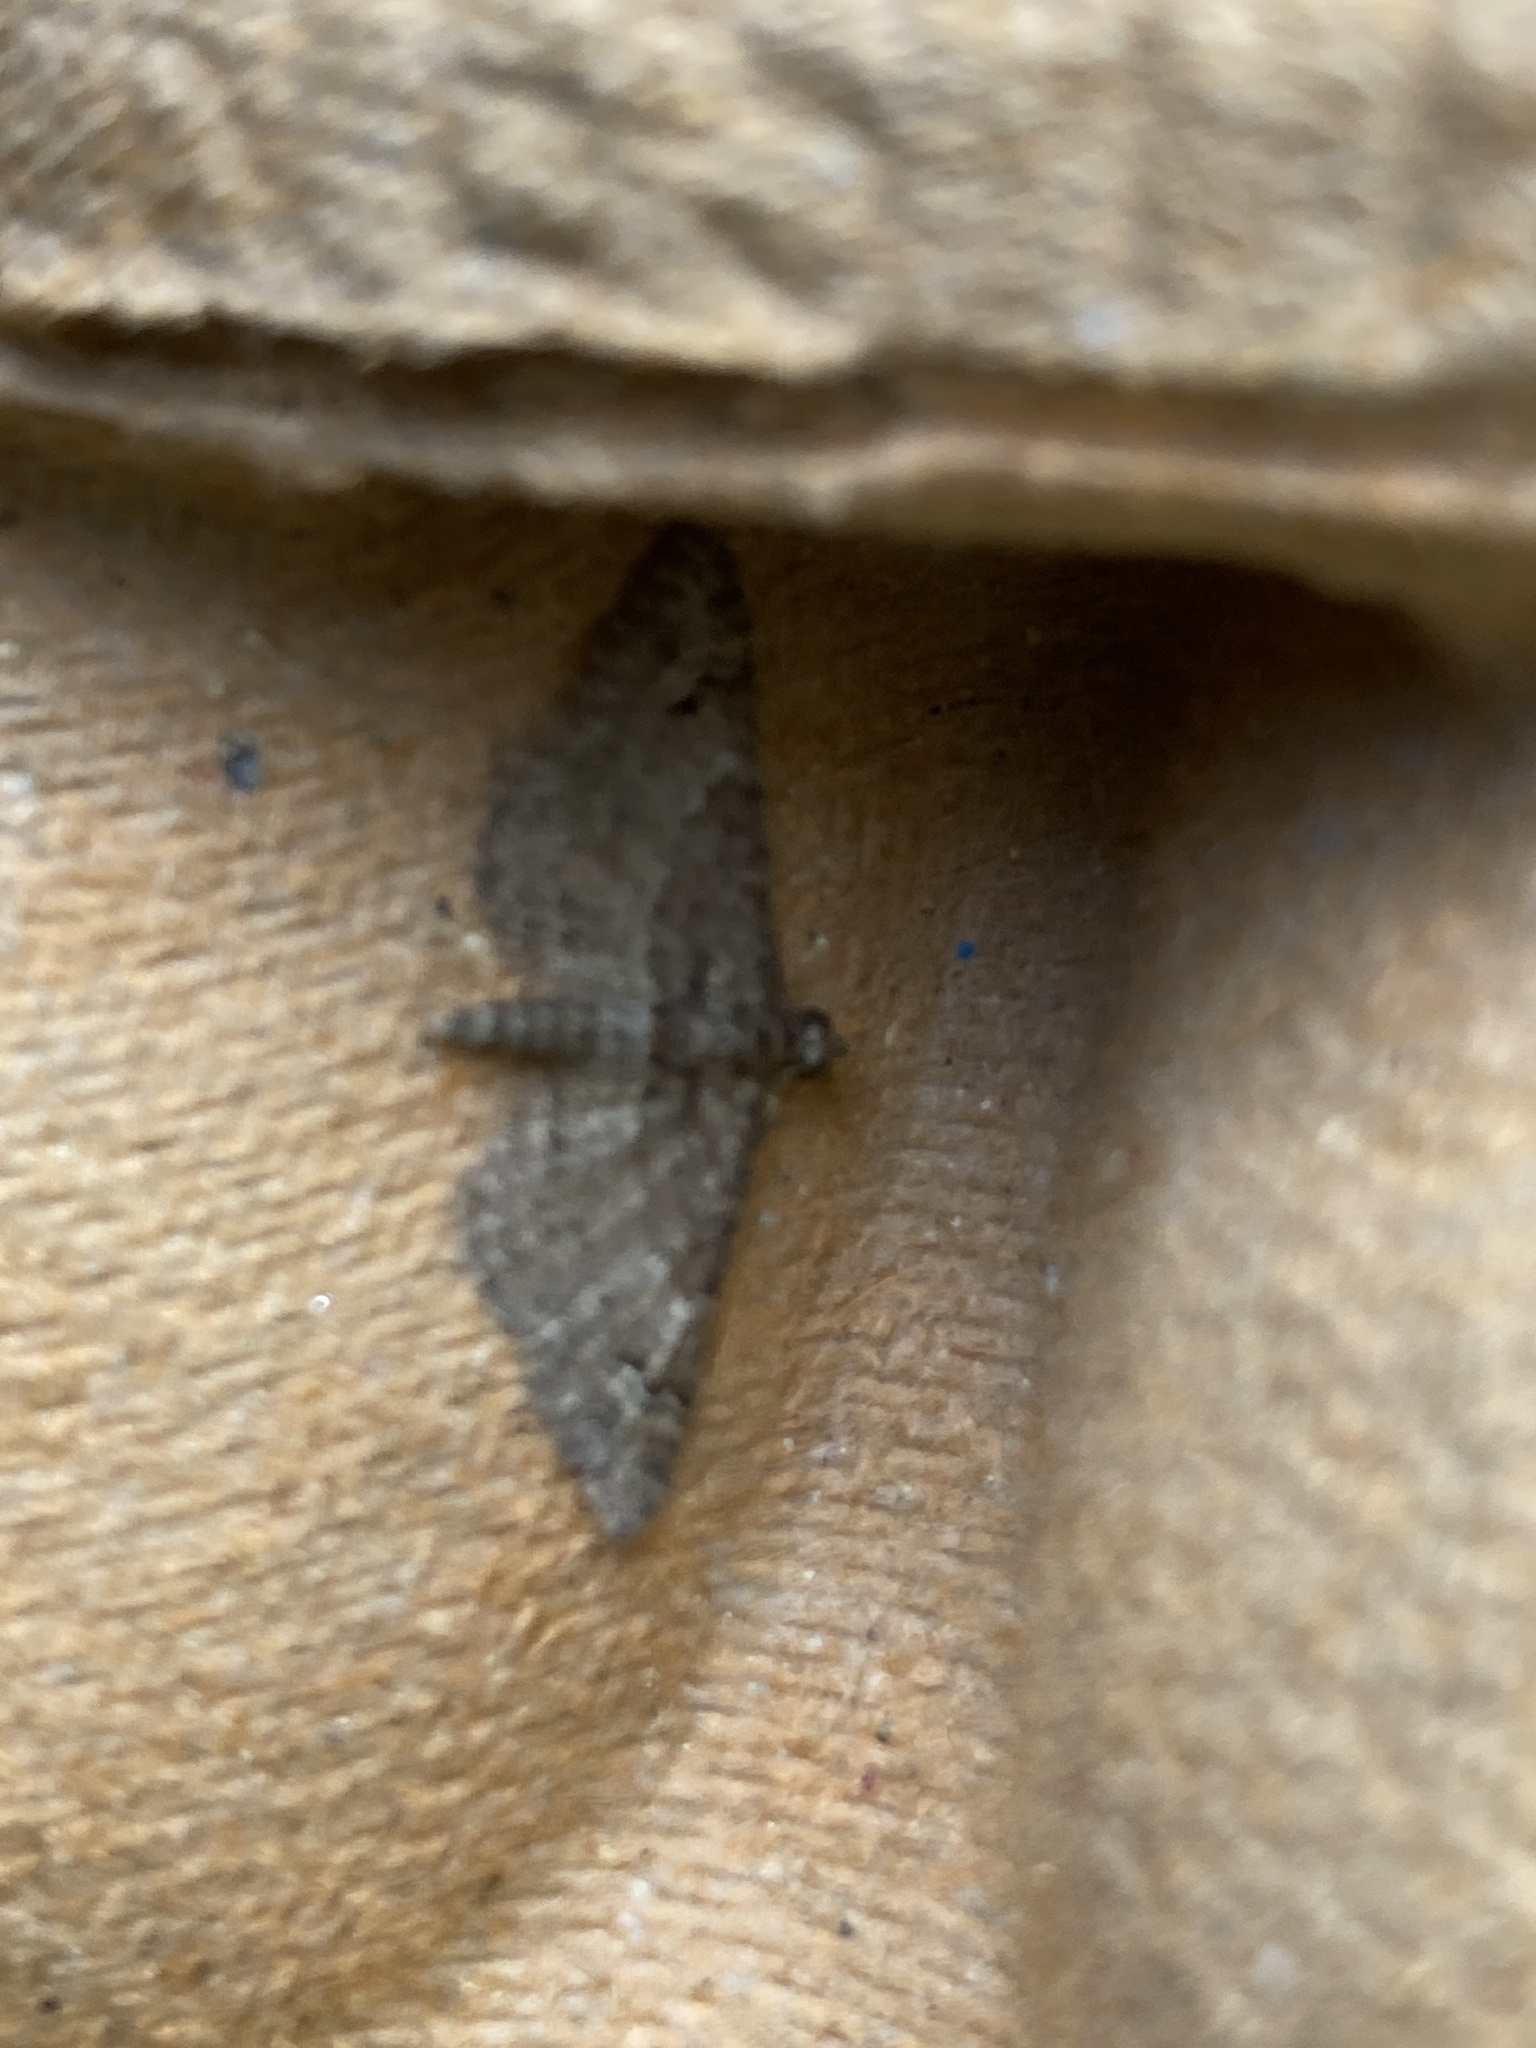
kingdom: Animalia
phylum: Arthropoda
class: Insecta
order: Lepidoptera
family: Geometridae
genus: Gymnoscelis
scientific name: Gymnoscelis rufifasciata
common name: Double-striped pug
